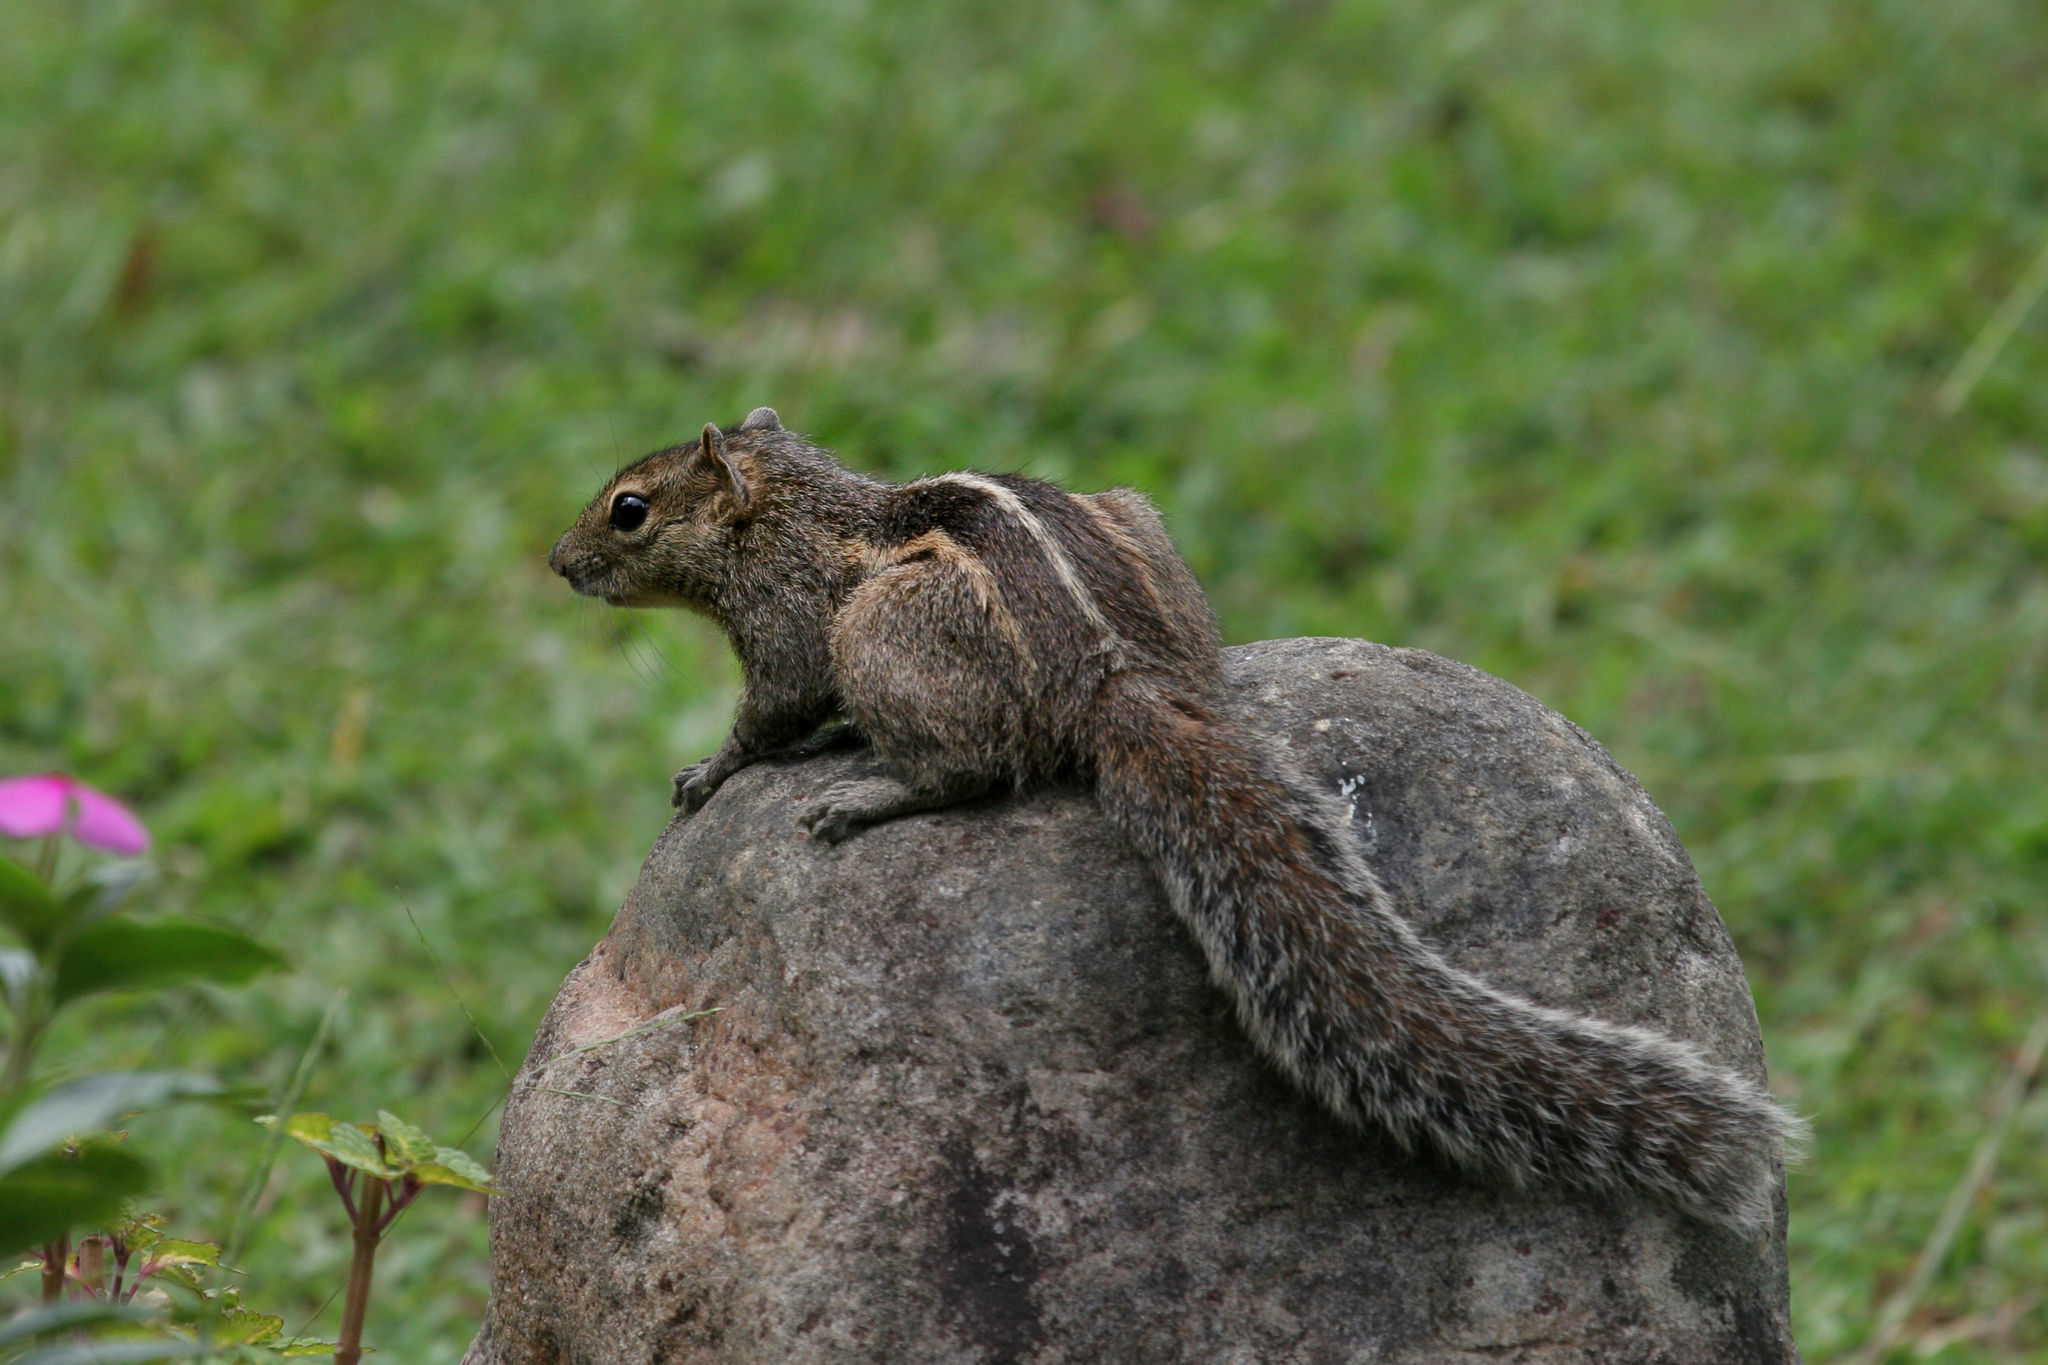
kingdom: Animalia
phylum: Chordata
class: Mammalia
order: Rodentia
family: Sciuridae
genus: Funambulus
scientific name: Funambulus palmarum
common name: Indian palm squirrel
